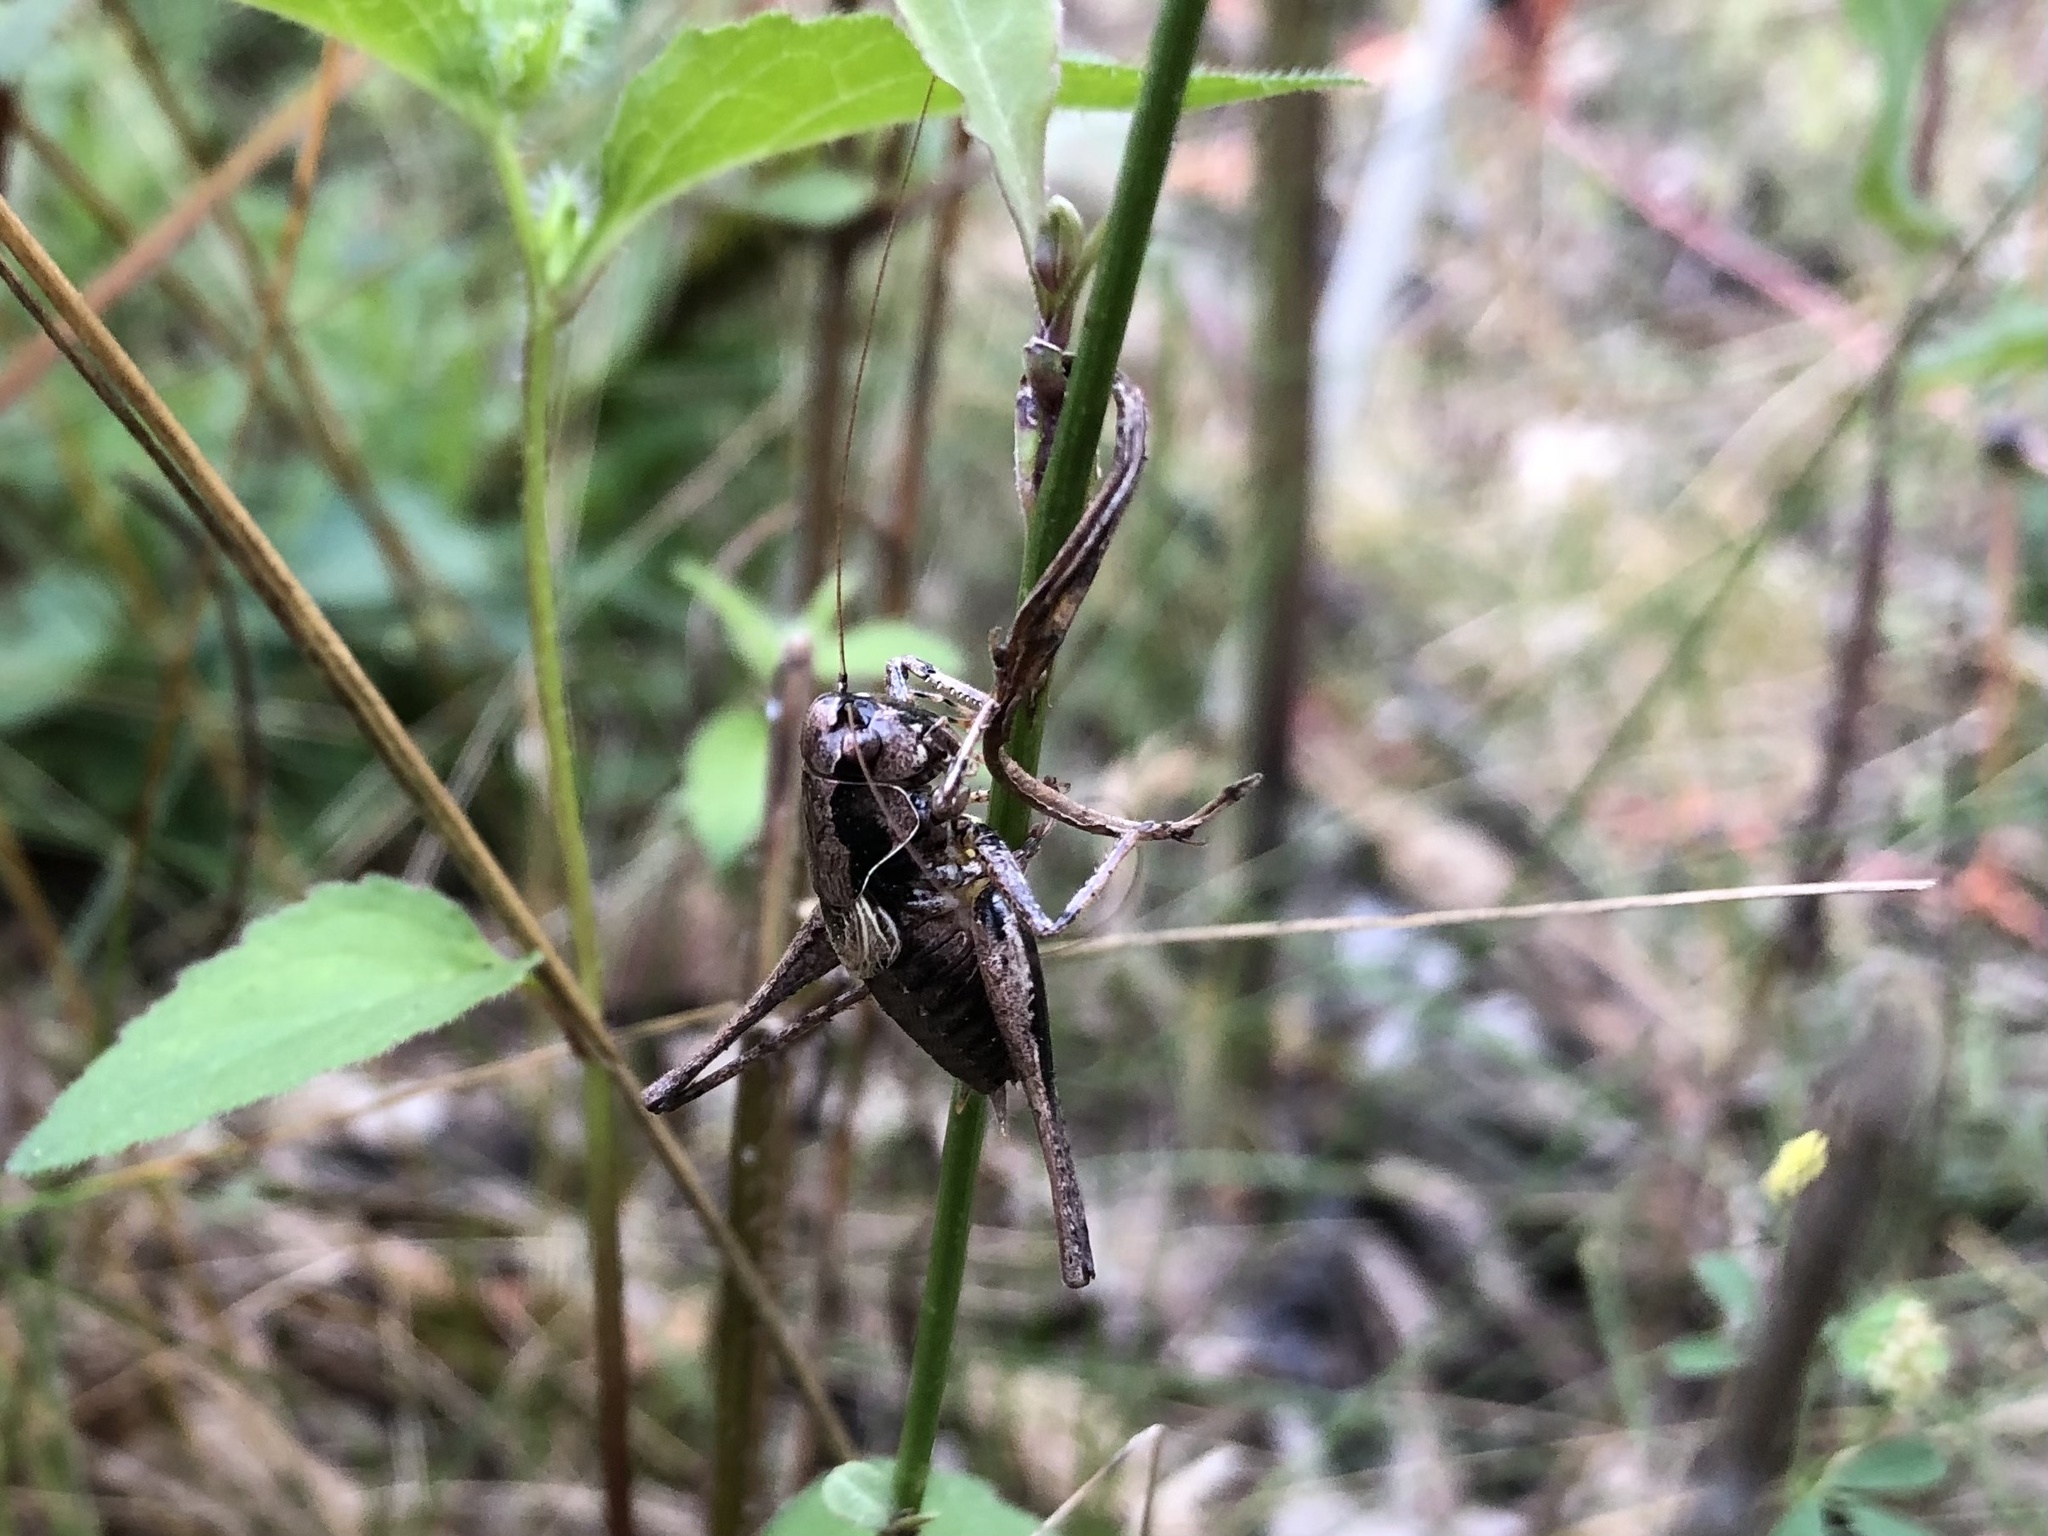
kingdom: Animalia
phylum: Arthropoda
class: Insecta
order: Orthoptera
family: Tettigoniidae
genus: Pholidoptera
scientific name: Pholidoptera griseoaptera
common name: Dark bush-cricket
